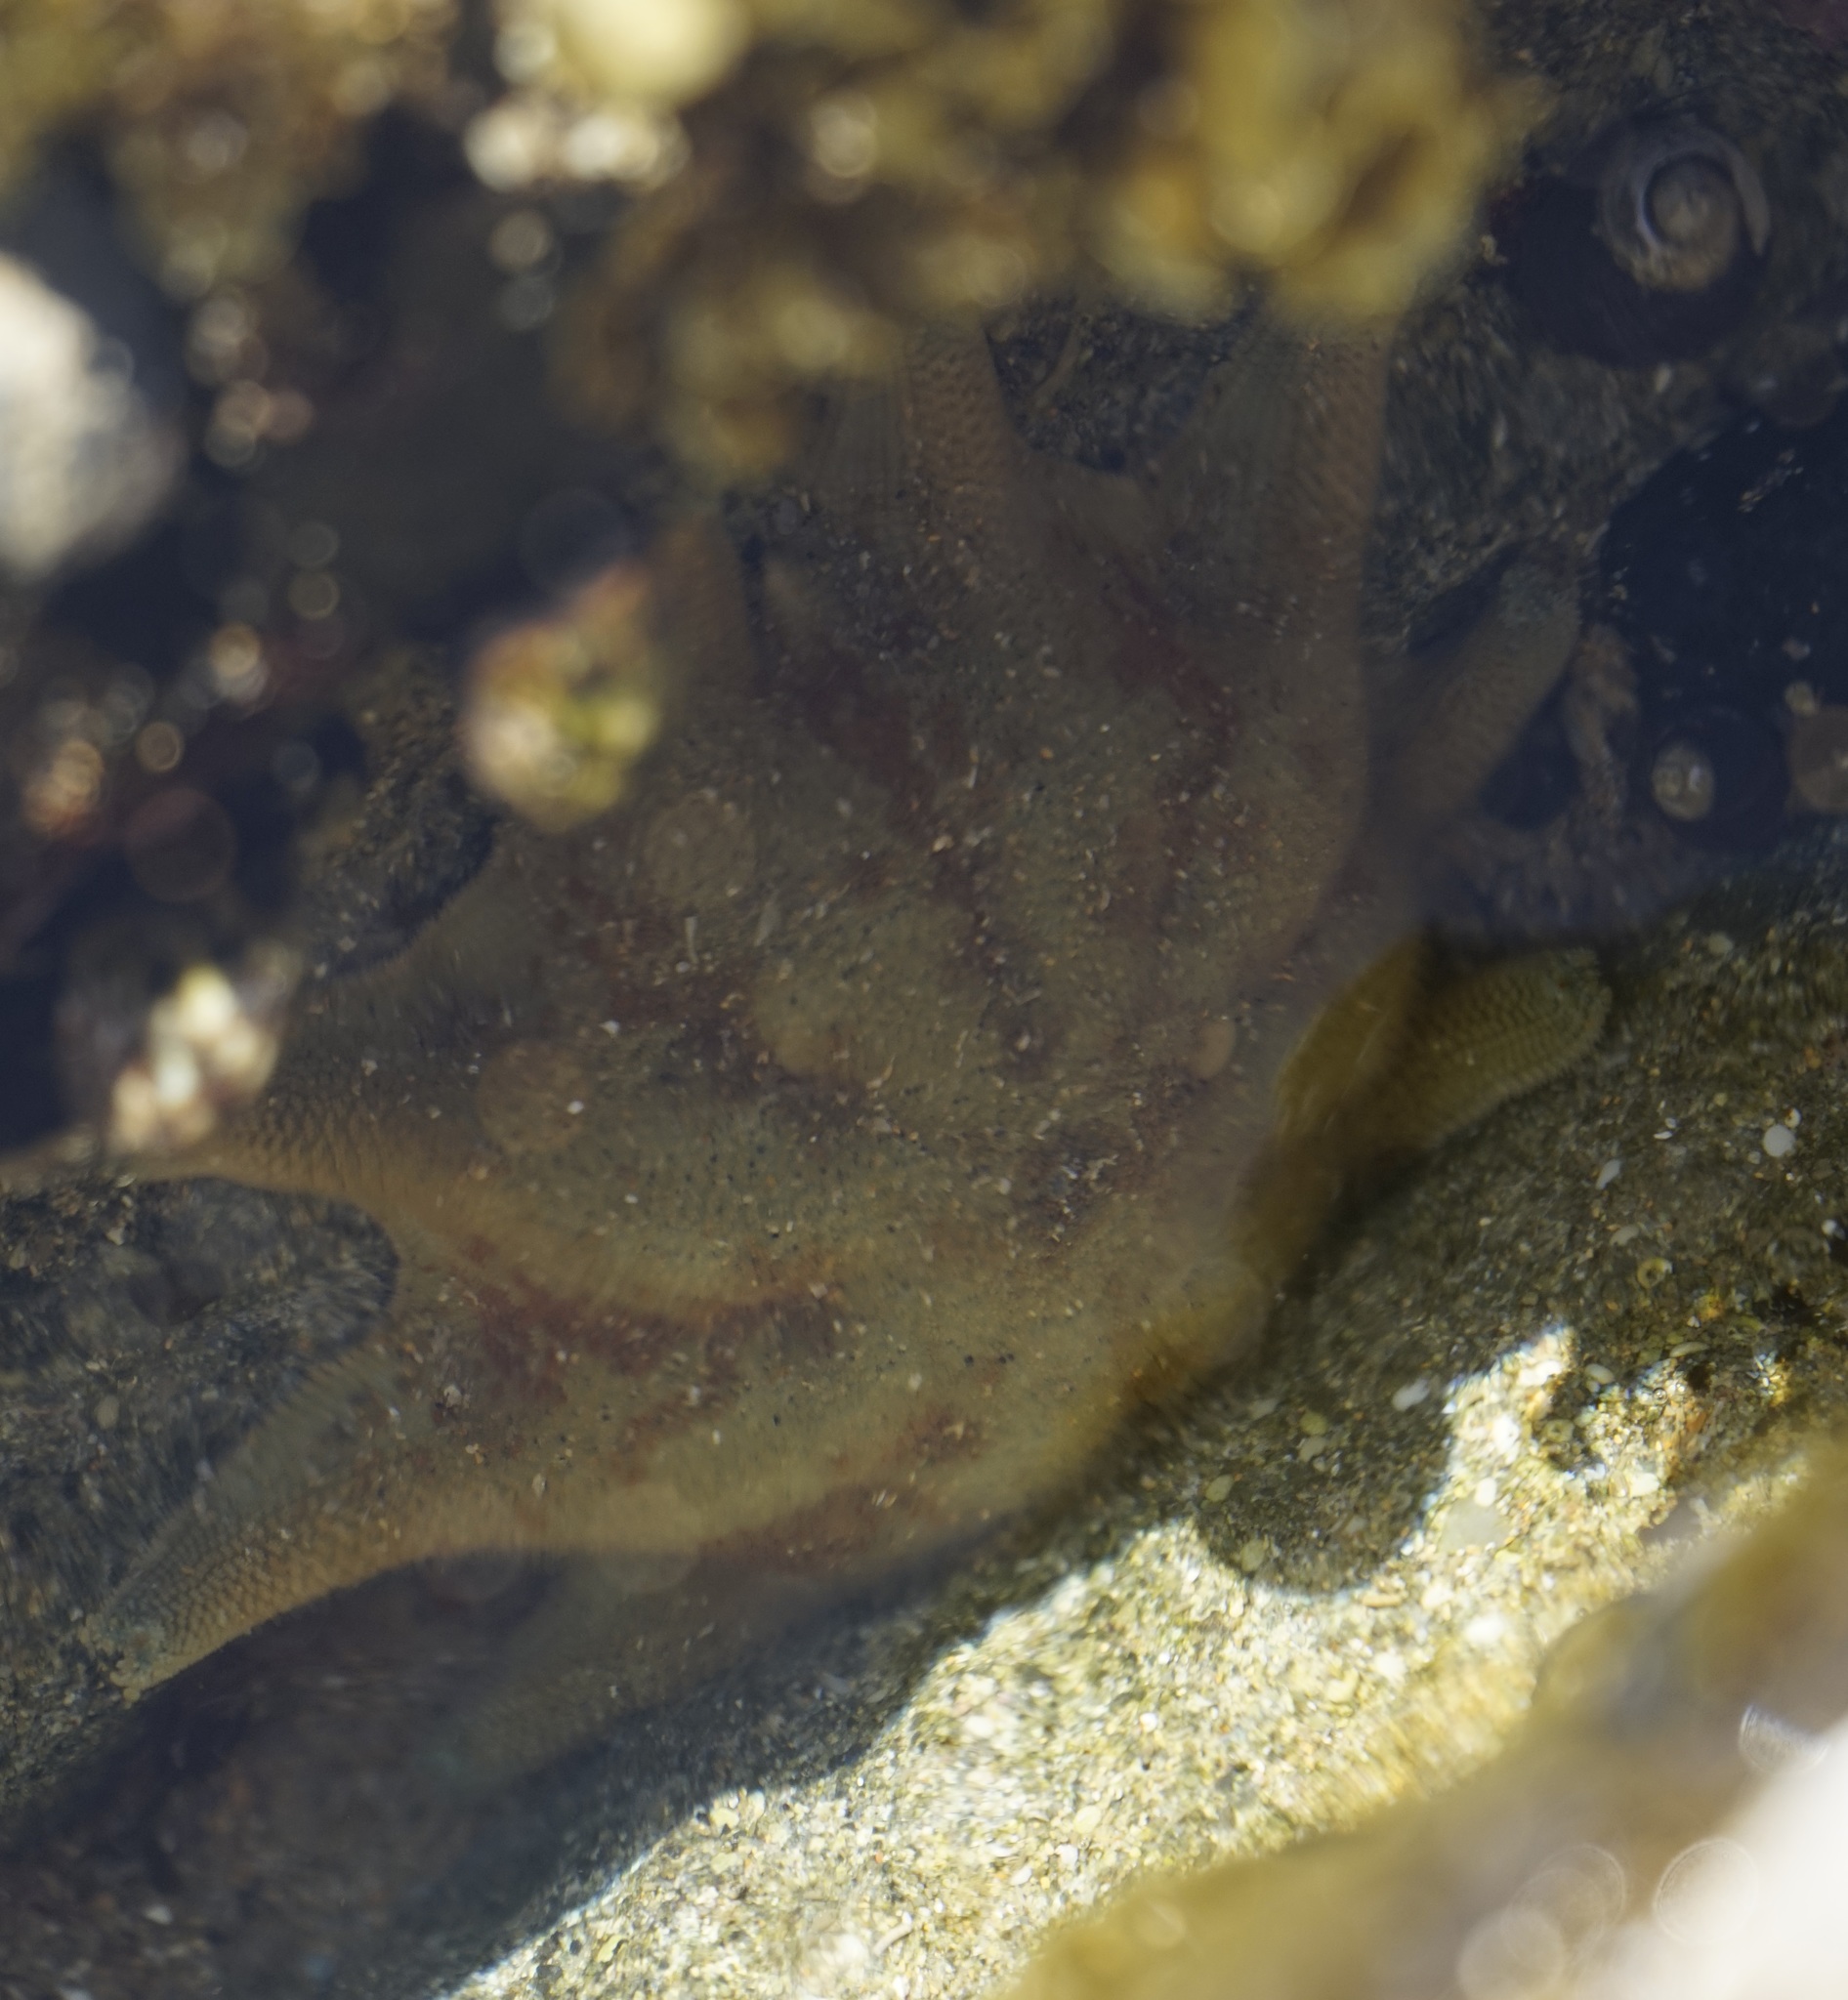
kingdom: Animalia
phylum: Echinodermata
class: Asteroidea
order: Valvatida
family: Asterinidae
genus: Meridiastra
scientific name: Meridiastra calcar
